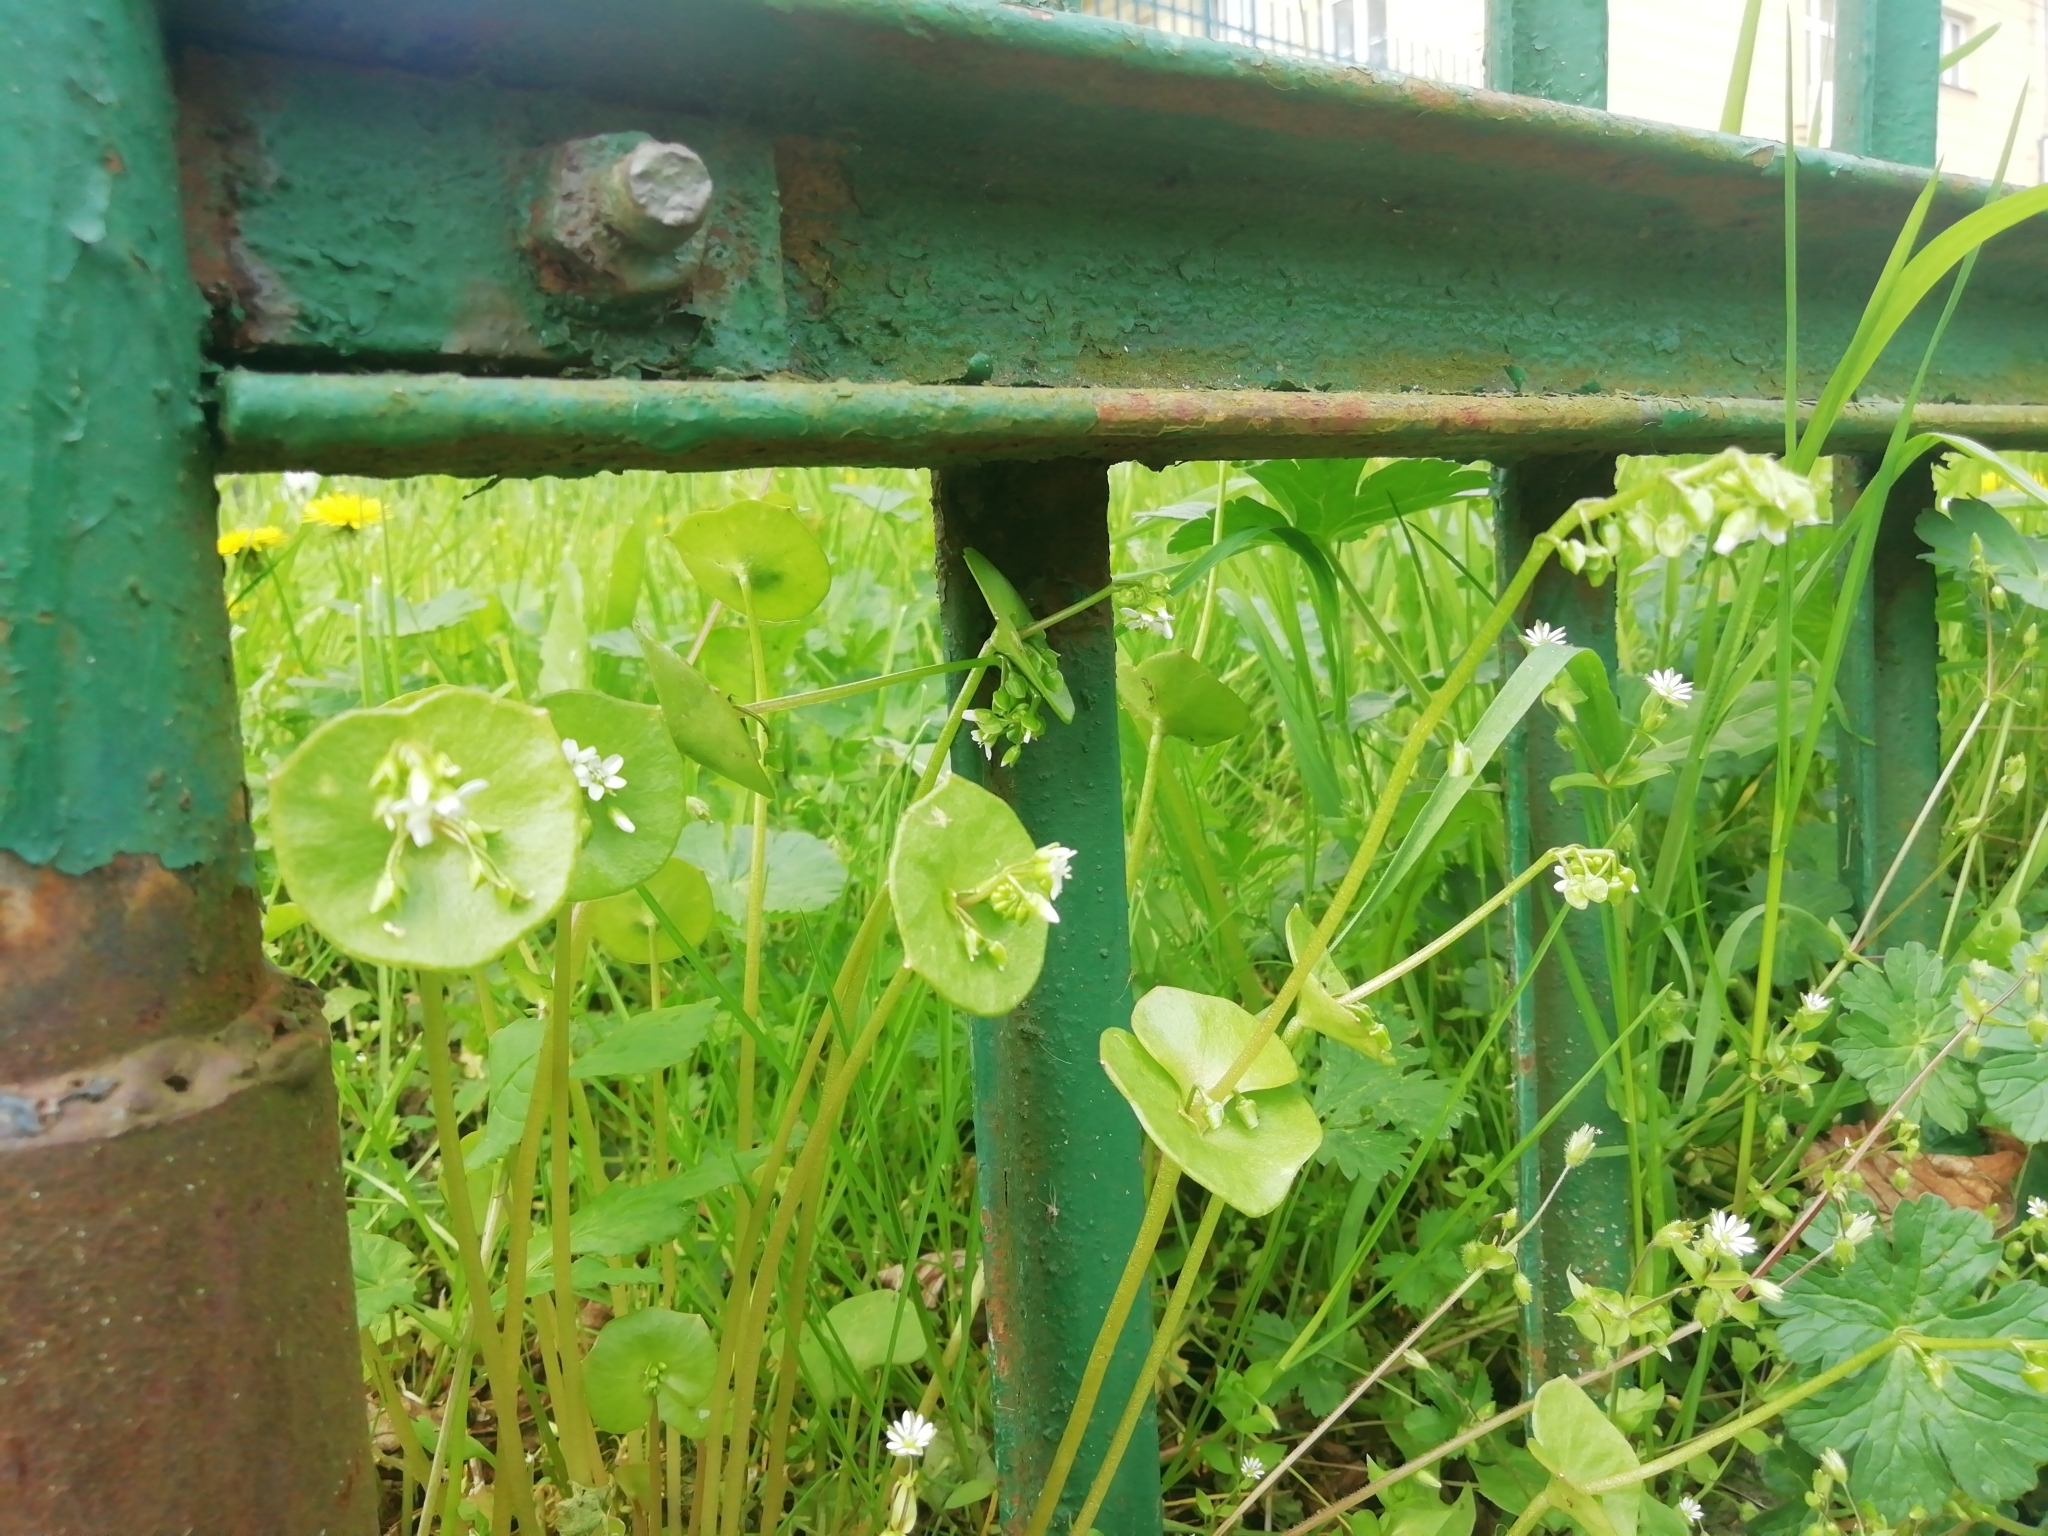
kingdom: Plantae
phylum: Tracheophyta
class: Magnoliopsida
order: Caryophyllales
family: Montiaceae
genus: Claytonia
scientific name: Claytonia perfoliata
